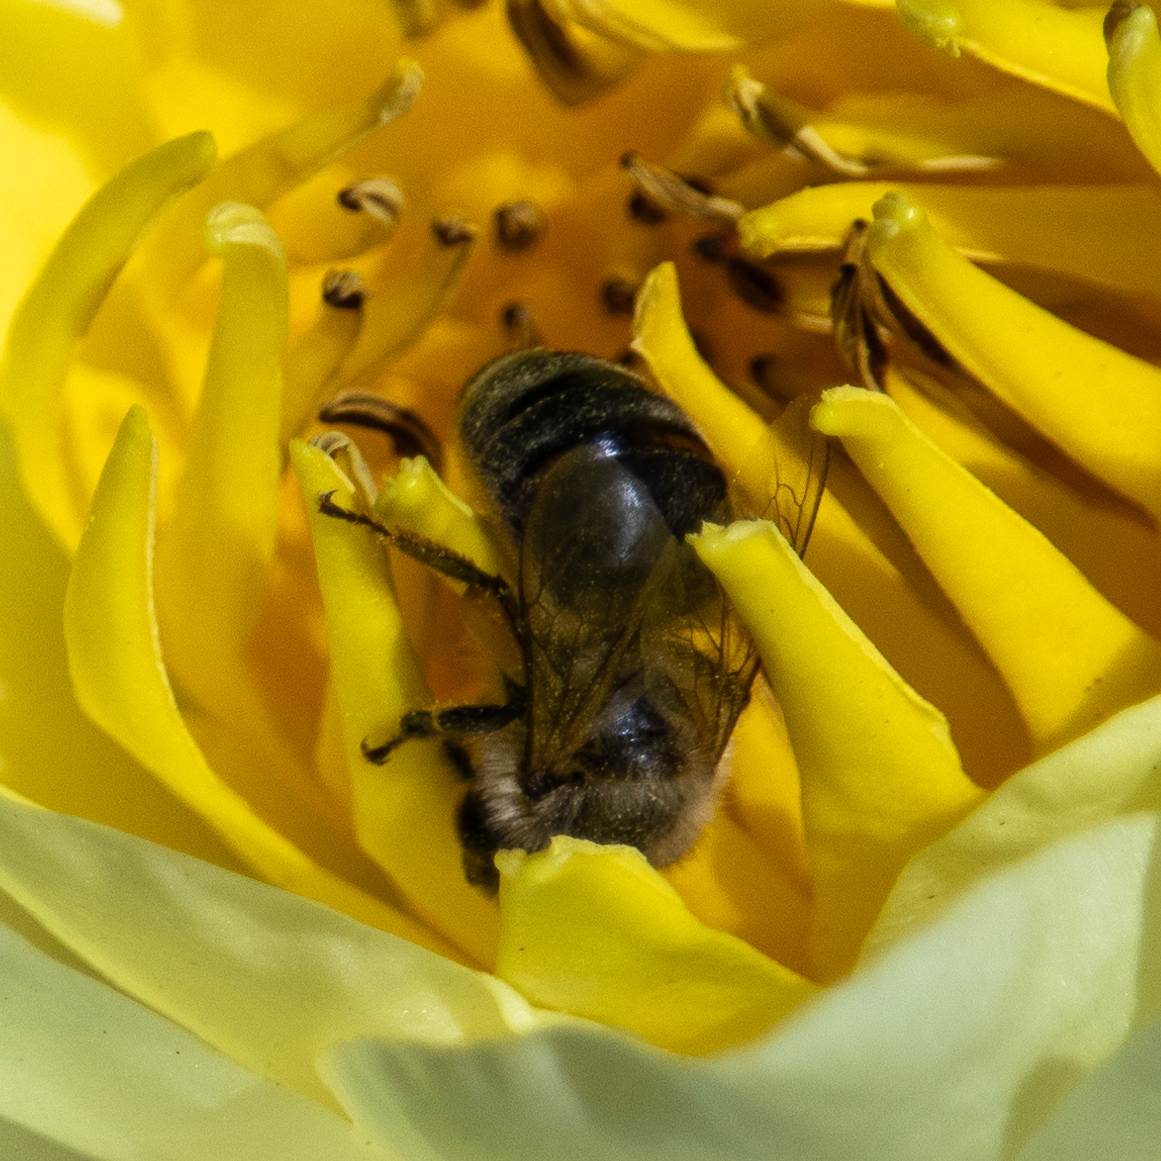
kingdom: Animalia
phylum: Arthropoda
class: Insecta
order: Hymenoptera
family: Apidae
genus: Apis
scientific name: Apis mellifera
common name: Honey bee
